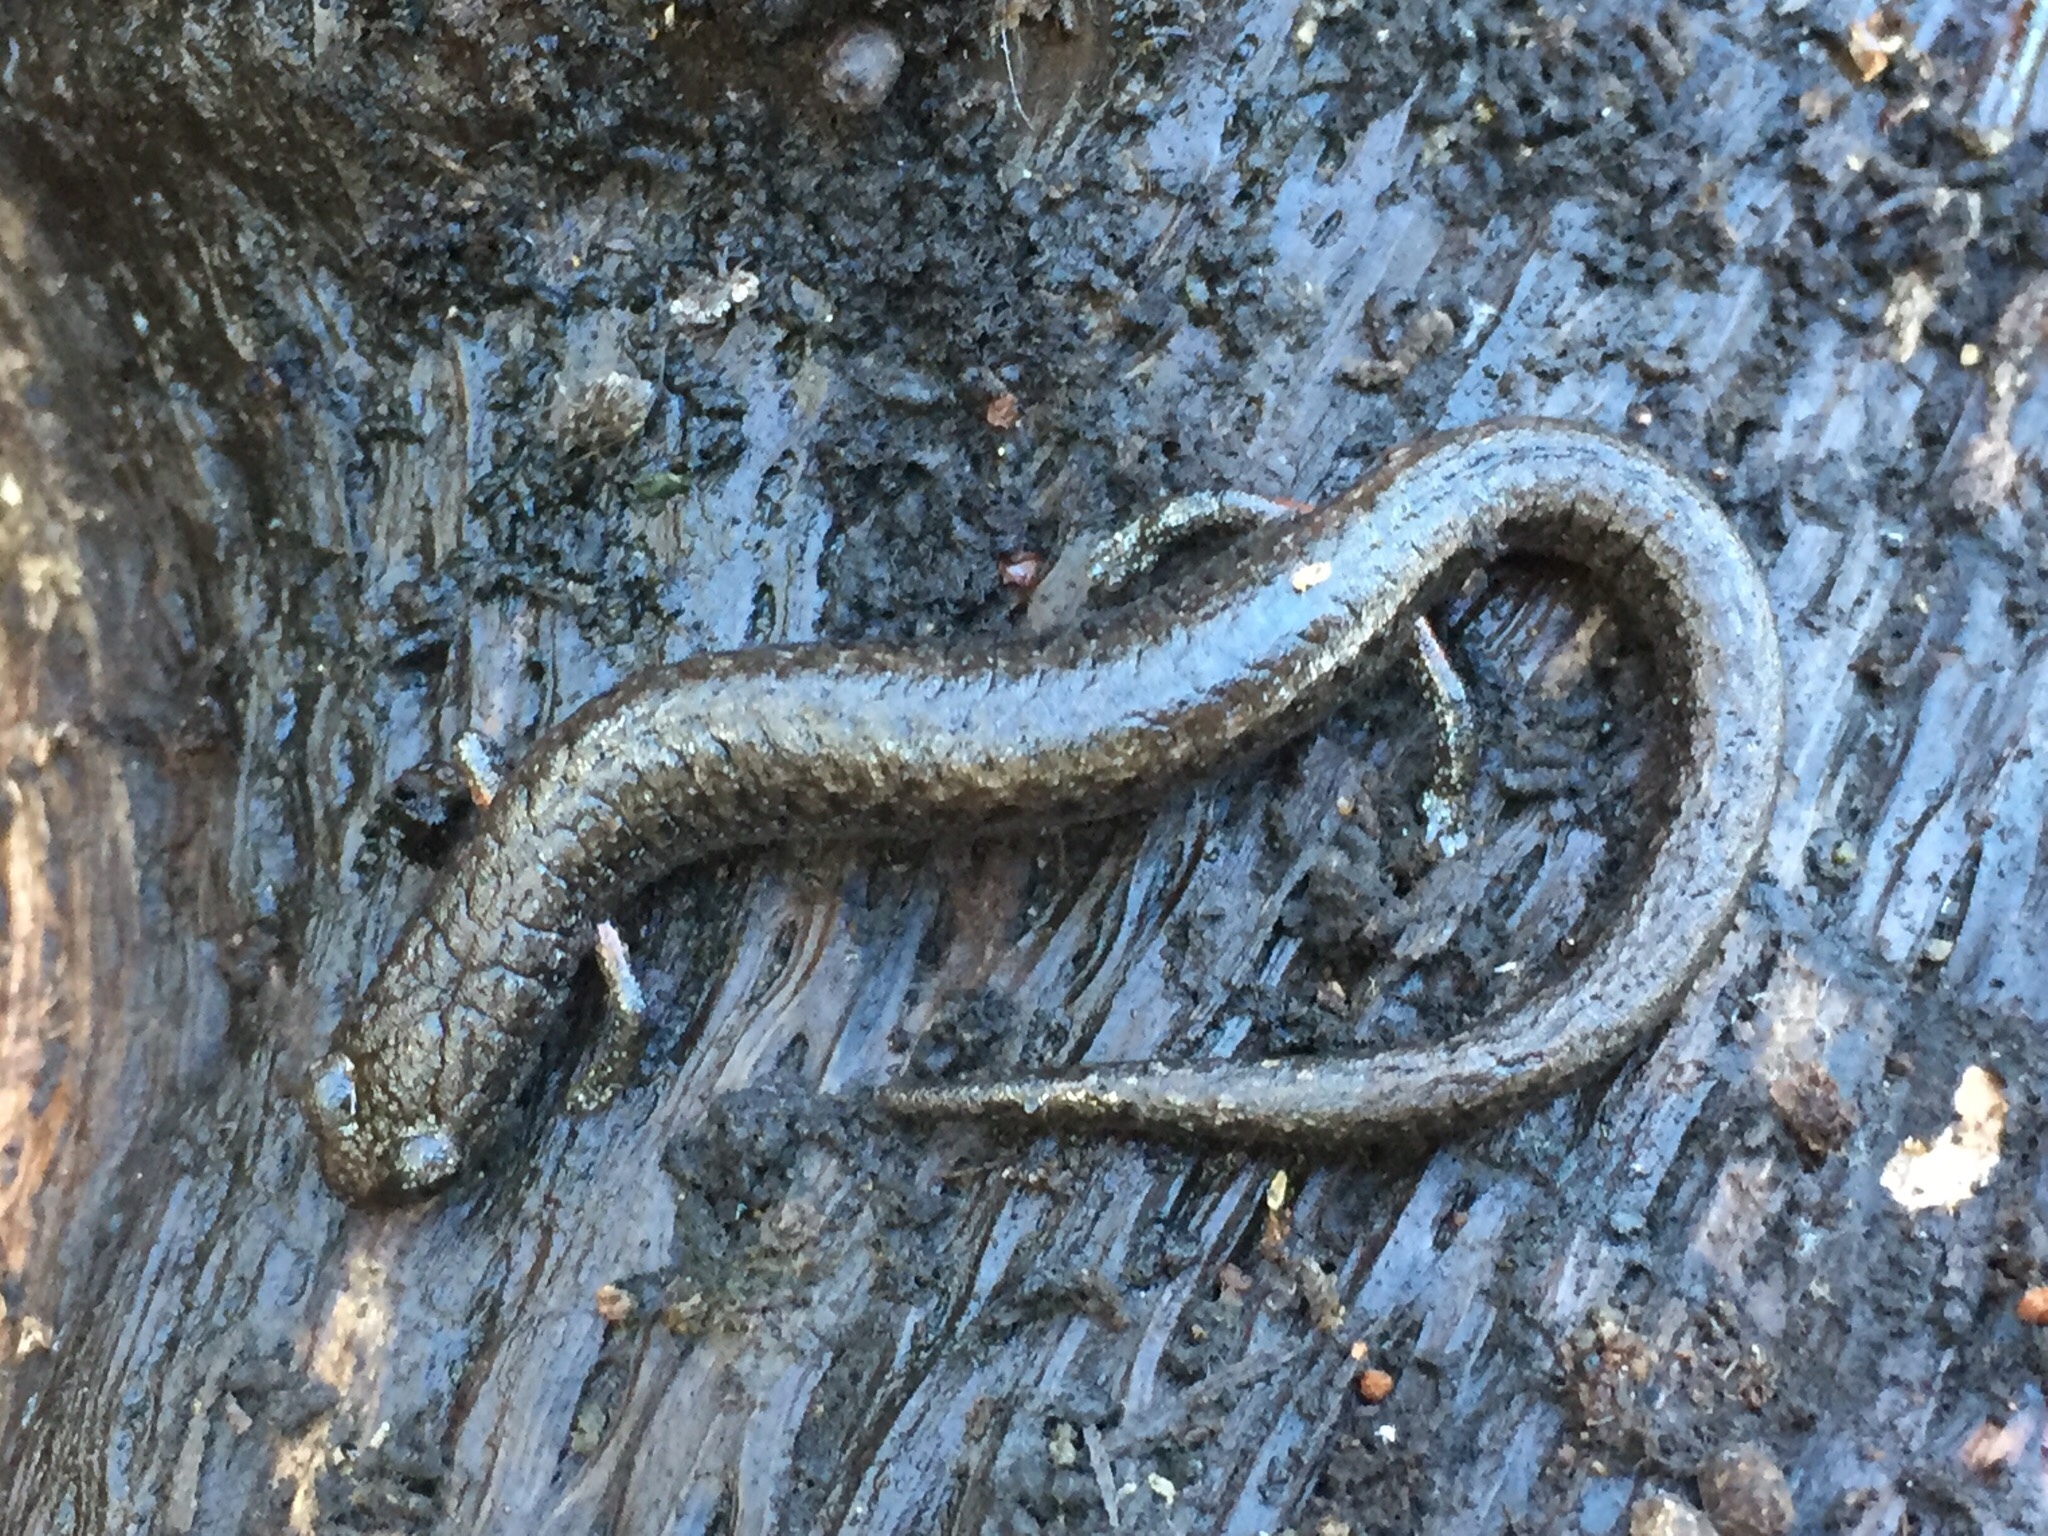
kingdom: Animalia
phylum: Chordata
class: Amphibia
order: Caudata
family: Plethodontidae
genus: Batrachoseps
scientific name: Batrachoseps attenuatus
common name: California slender salamander
